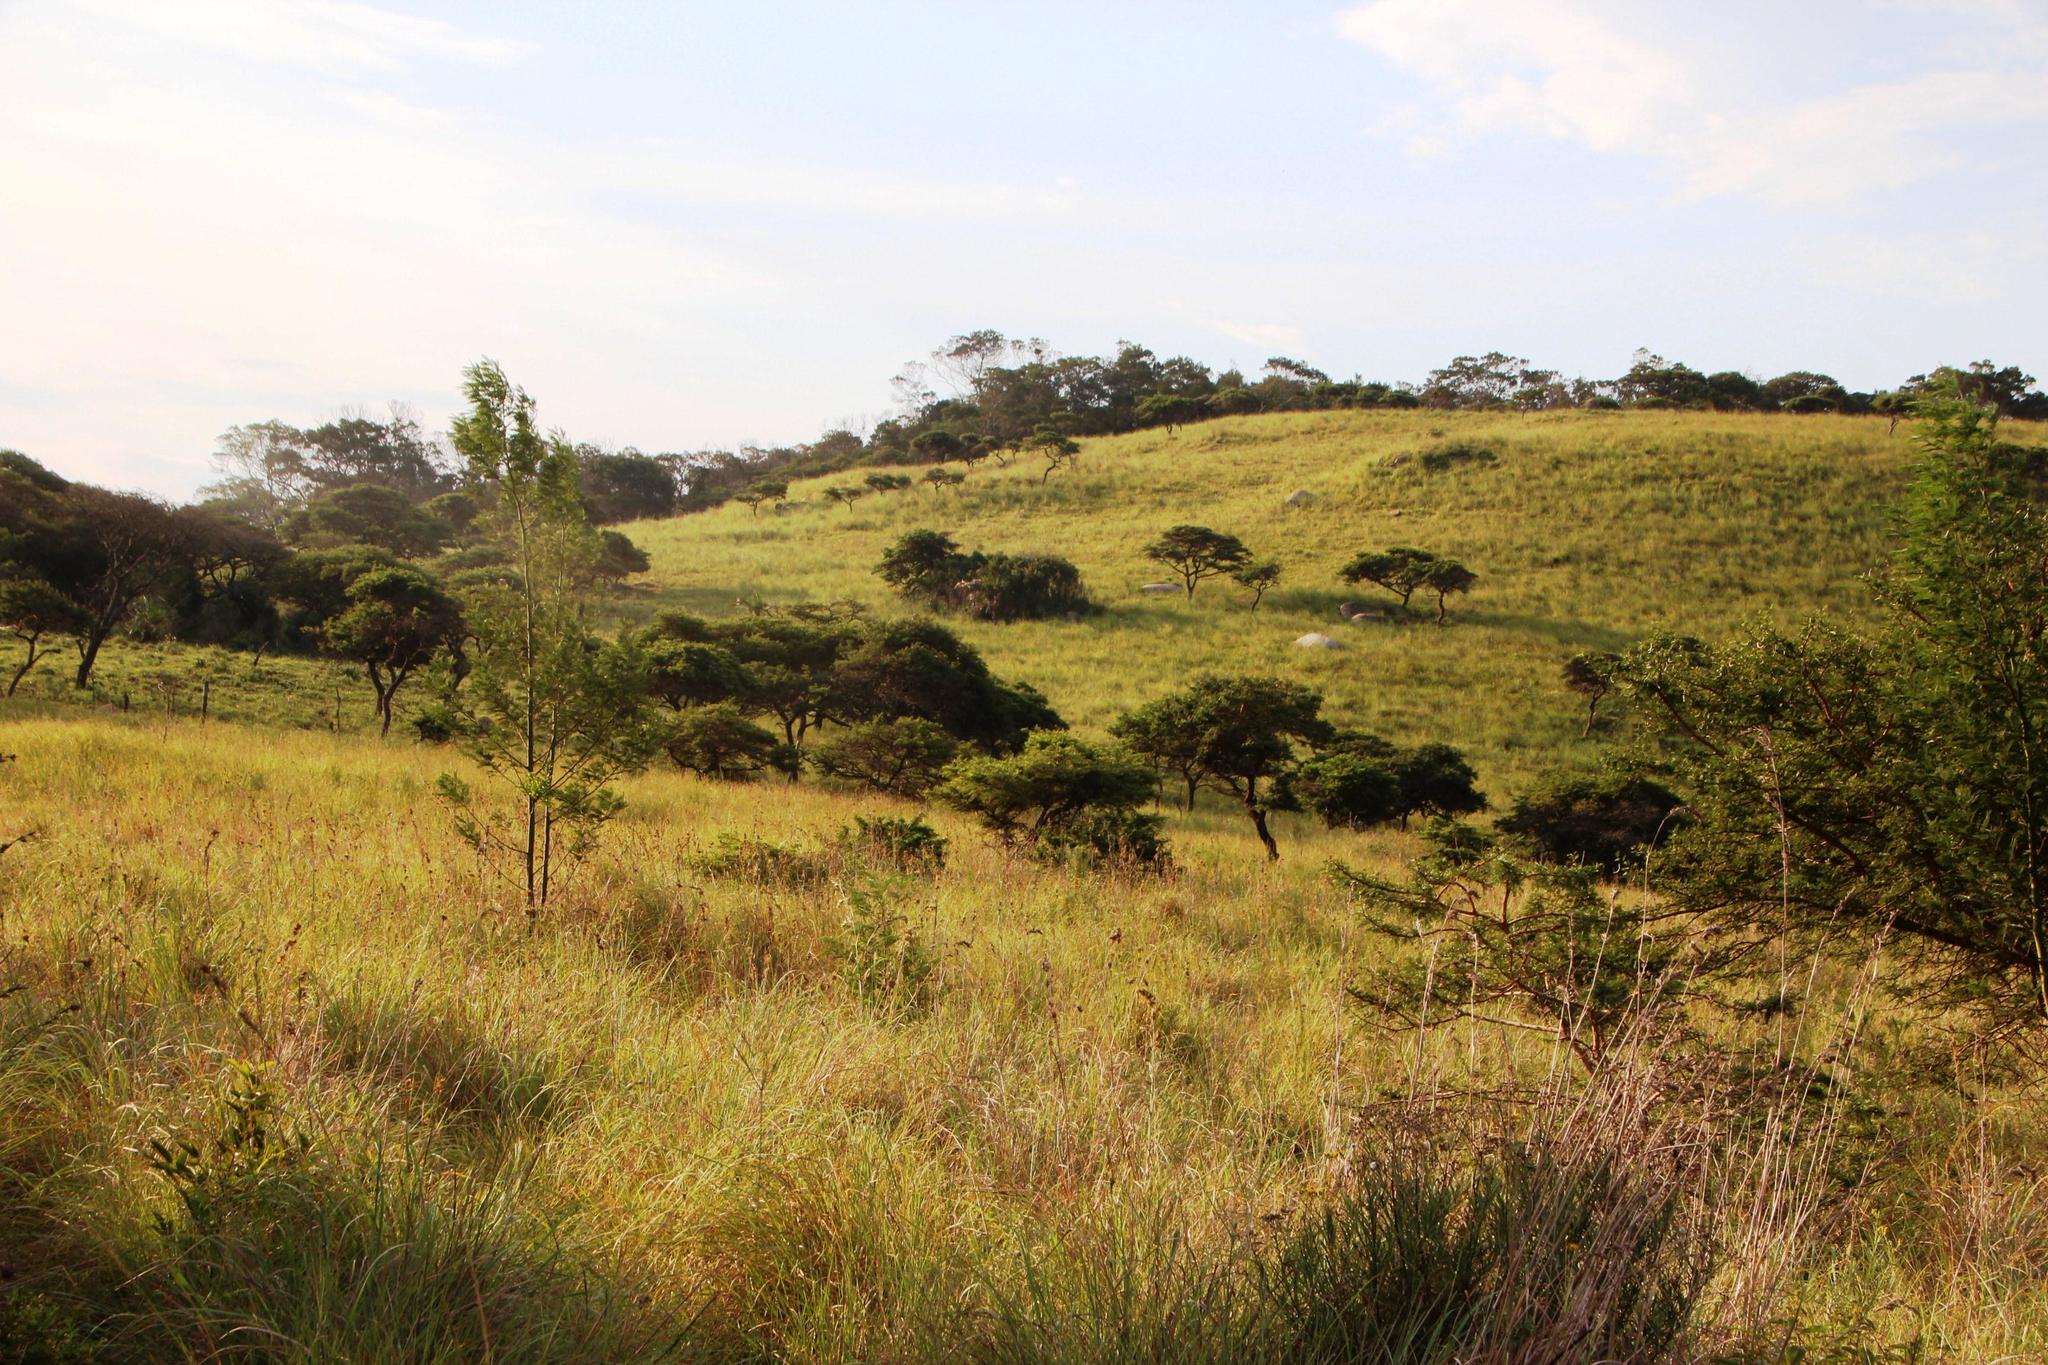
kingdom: Plantae
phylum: Tracheophyta
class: Magnoliopsida
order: Fabales
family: Fabaceae
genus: Vachellia
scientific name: Vachellia karroo
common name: Sweet thorn
